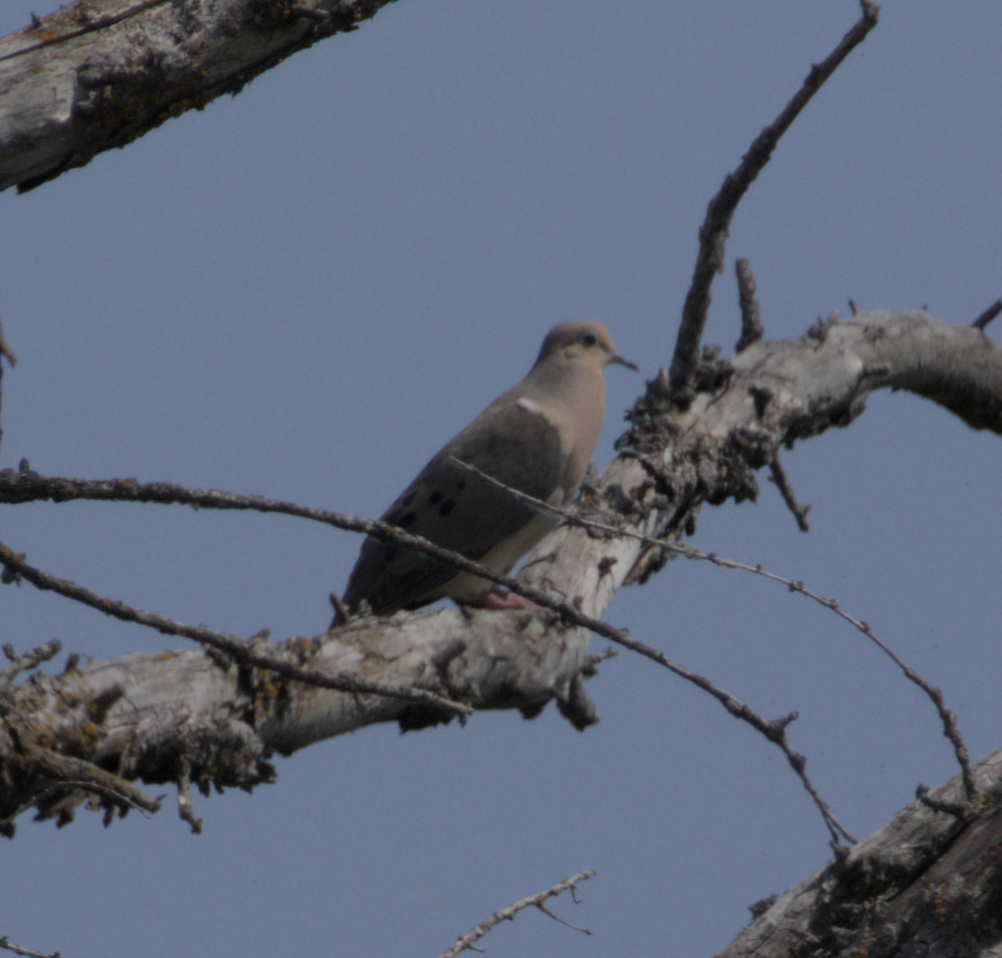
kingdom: Animalia
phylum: Chordata
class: Aves
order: Columbiformes
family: Columbidae
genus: Zenaida
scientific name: Zenaida macroura
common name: Mourning dove
